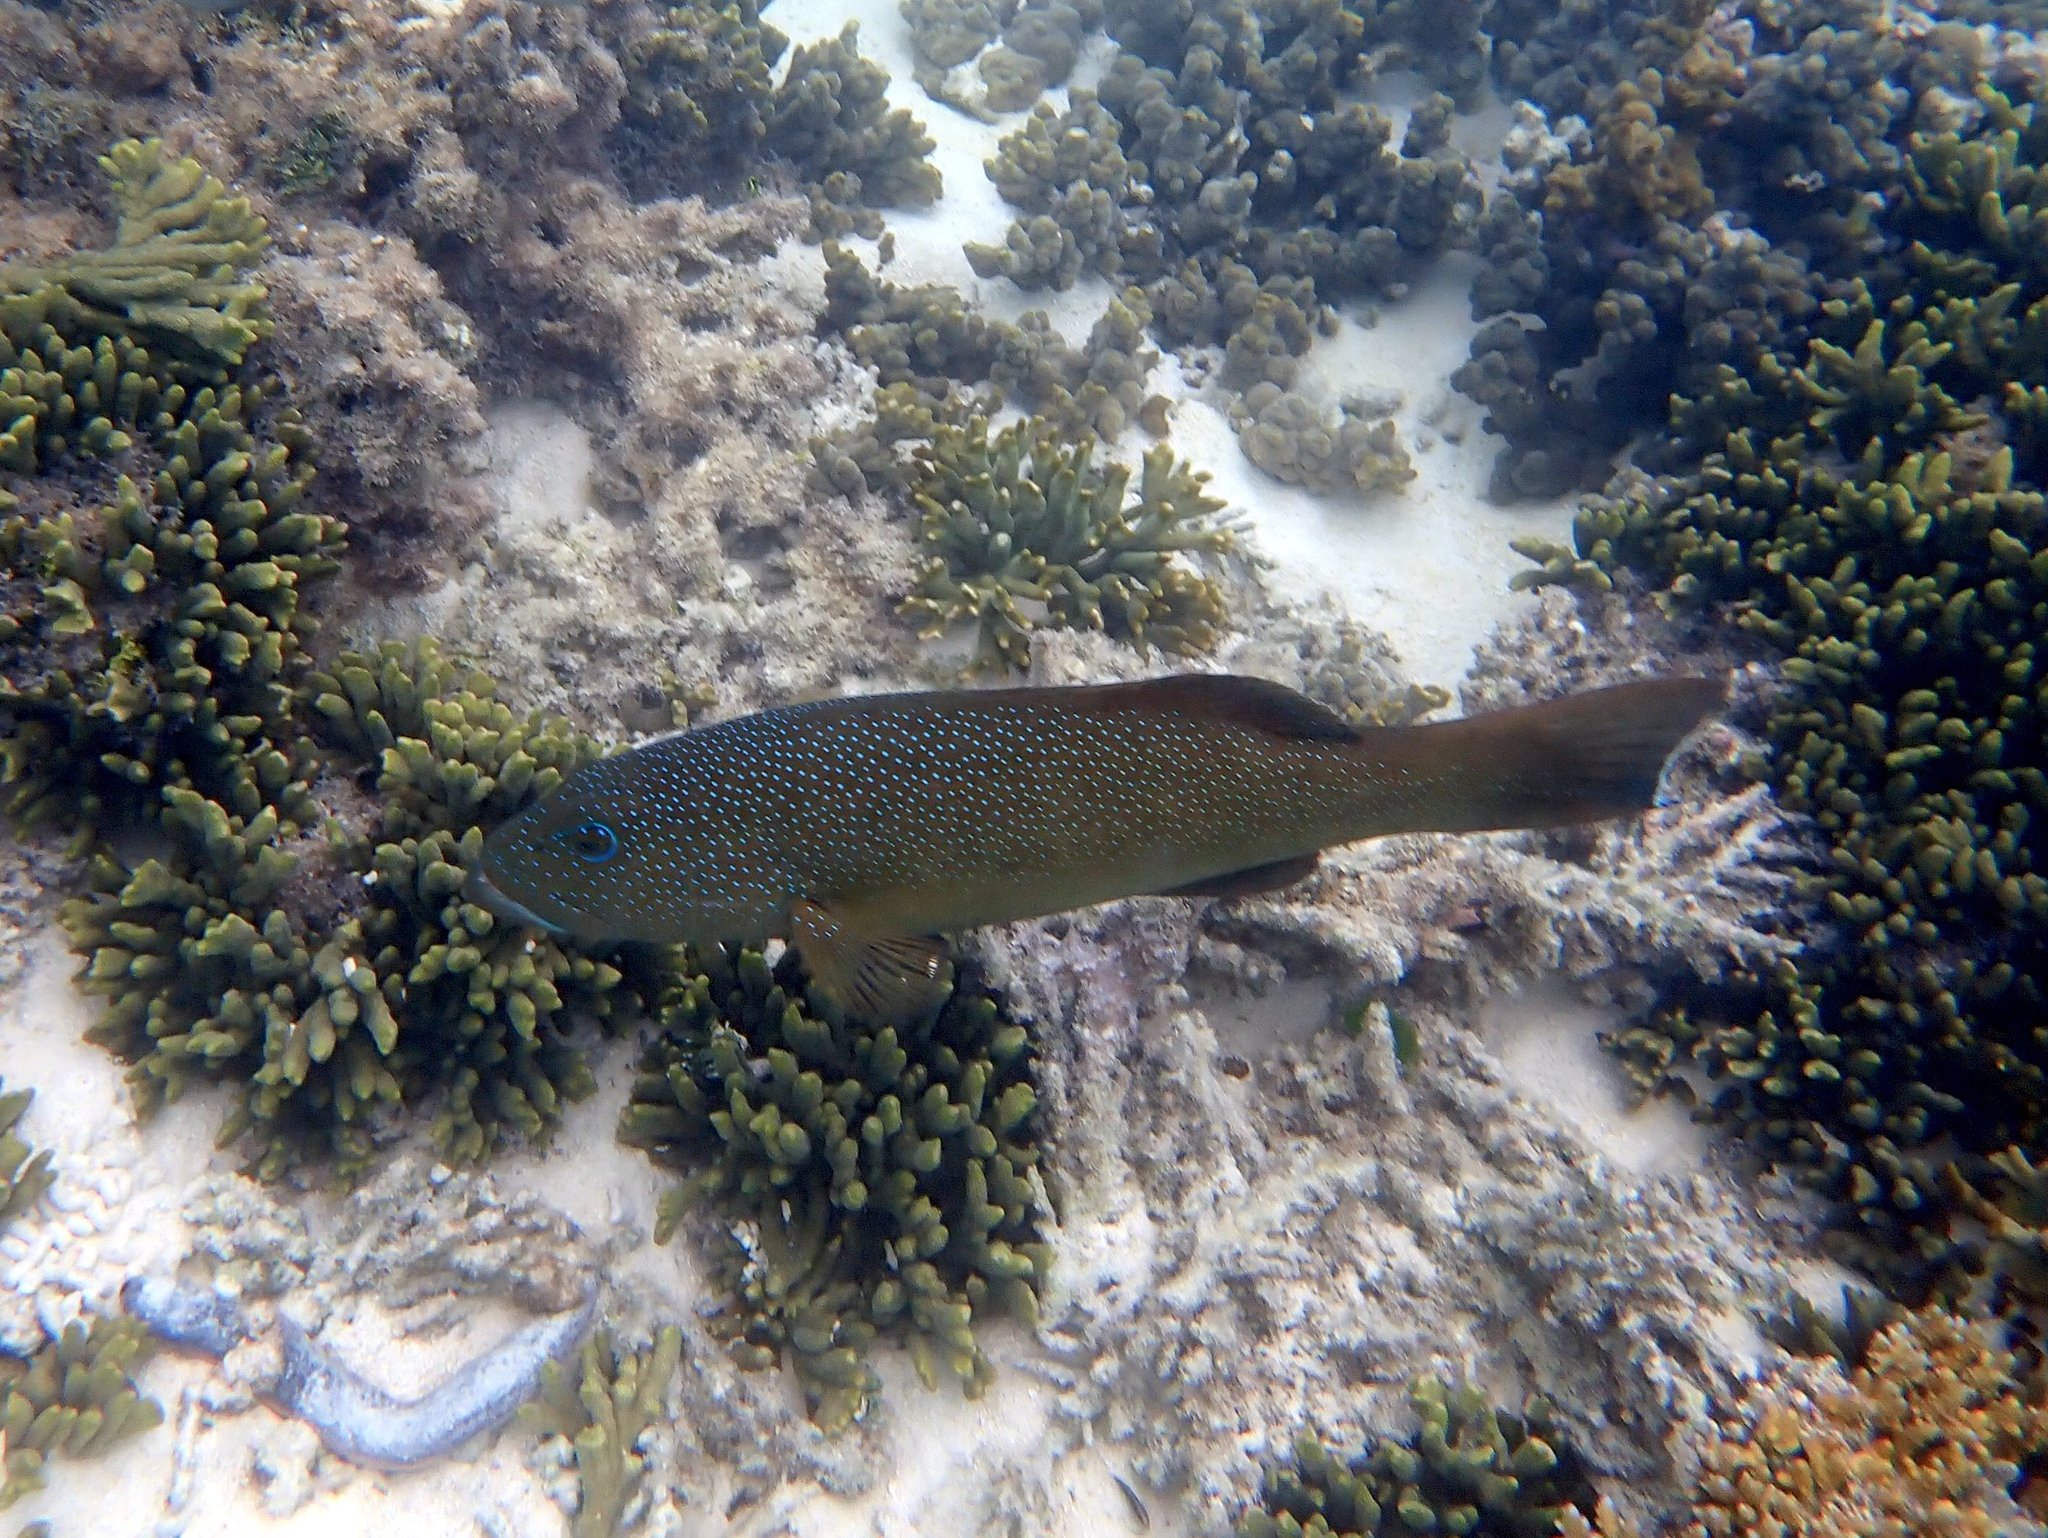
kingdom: Animalia
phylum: Chordata
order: Perciformes
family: Serranidae
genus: Plectropomus
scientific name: Plectropomus leopardus
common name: Coral trout
